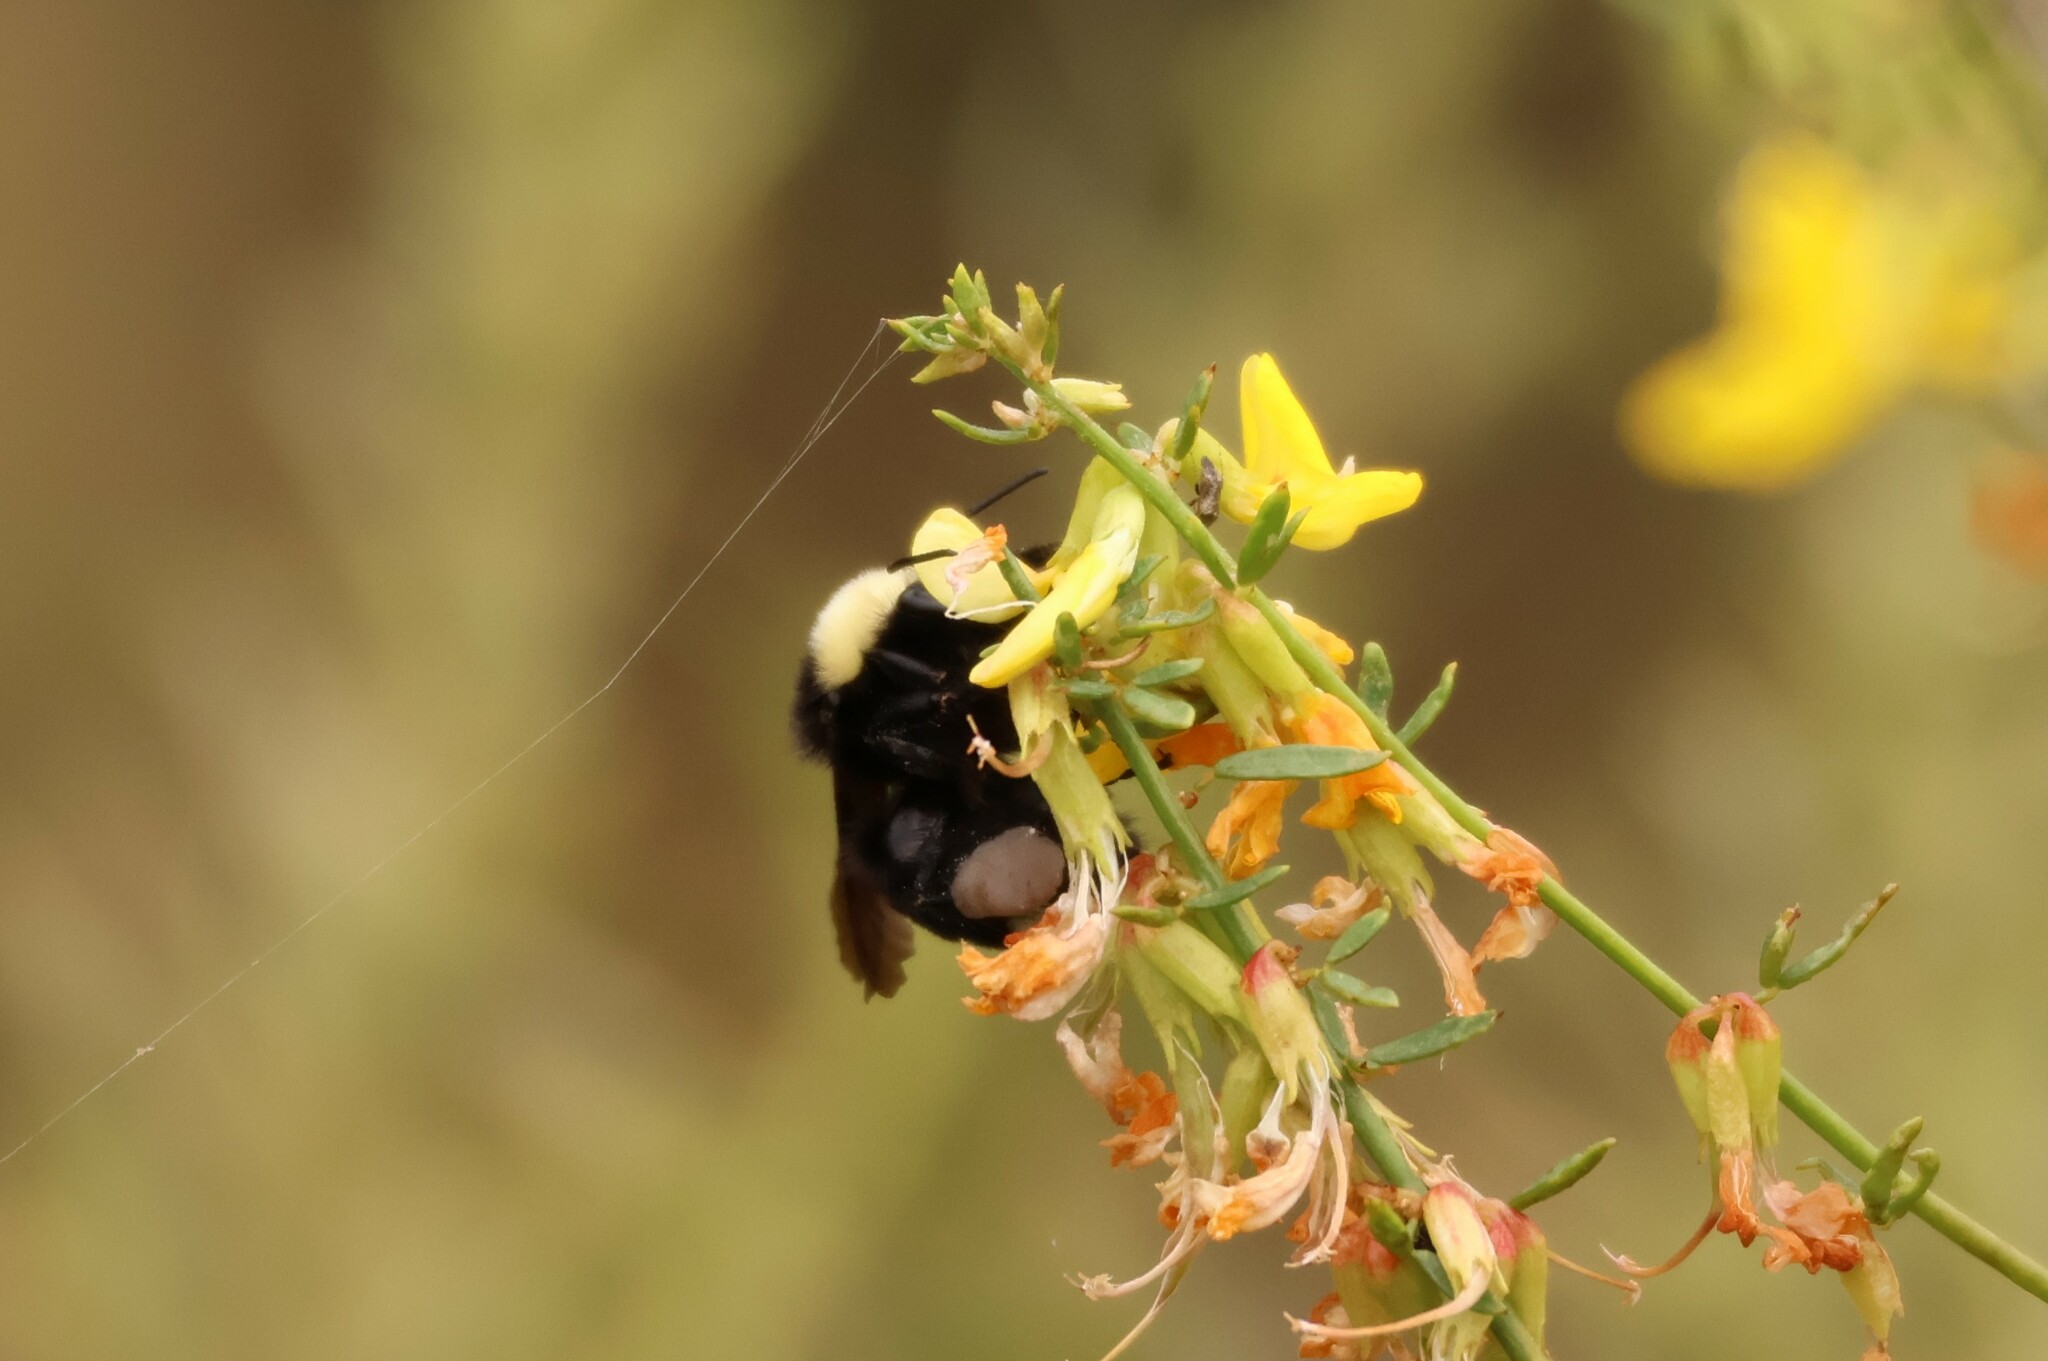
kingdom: Animalia
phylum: Arthropoda
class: Insecta
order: Hymenoptera
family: Apidae
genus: Bombus
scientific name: Bombus vosnesenskii
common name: Vosnesensky bumble bee
